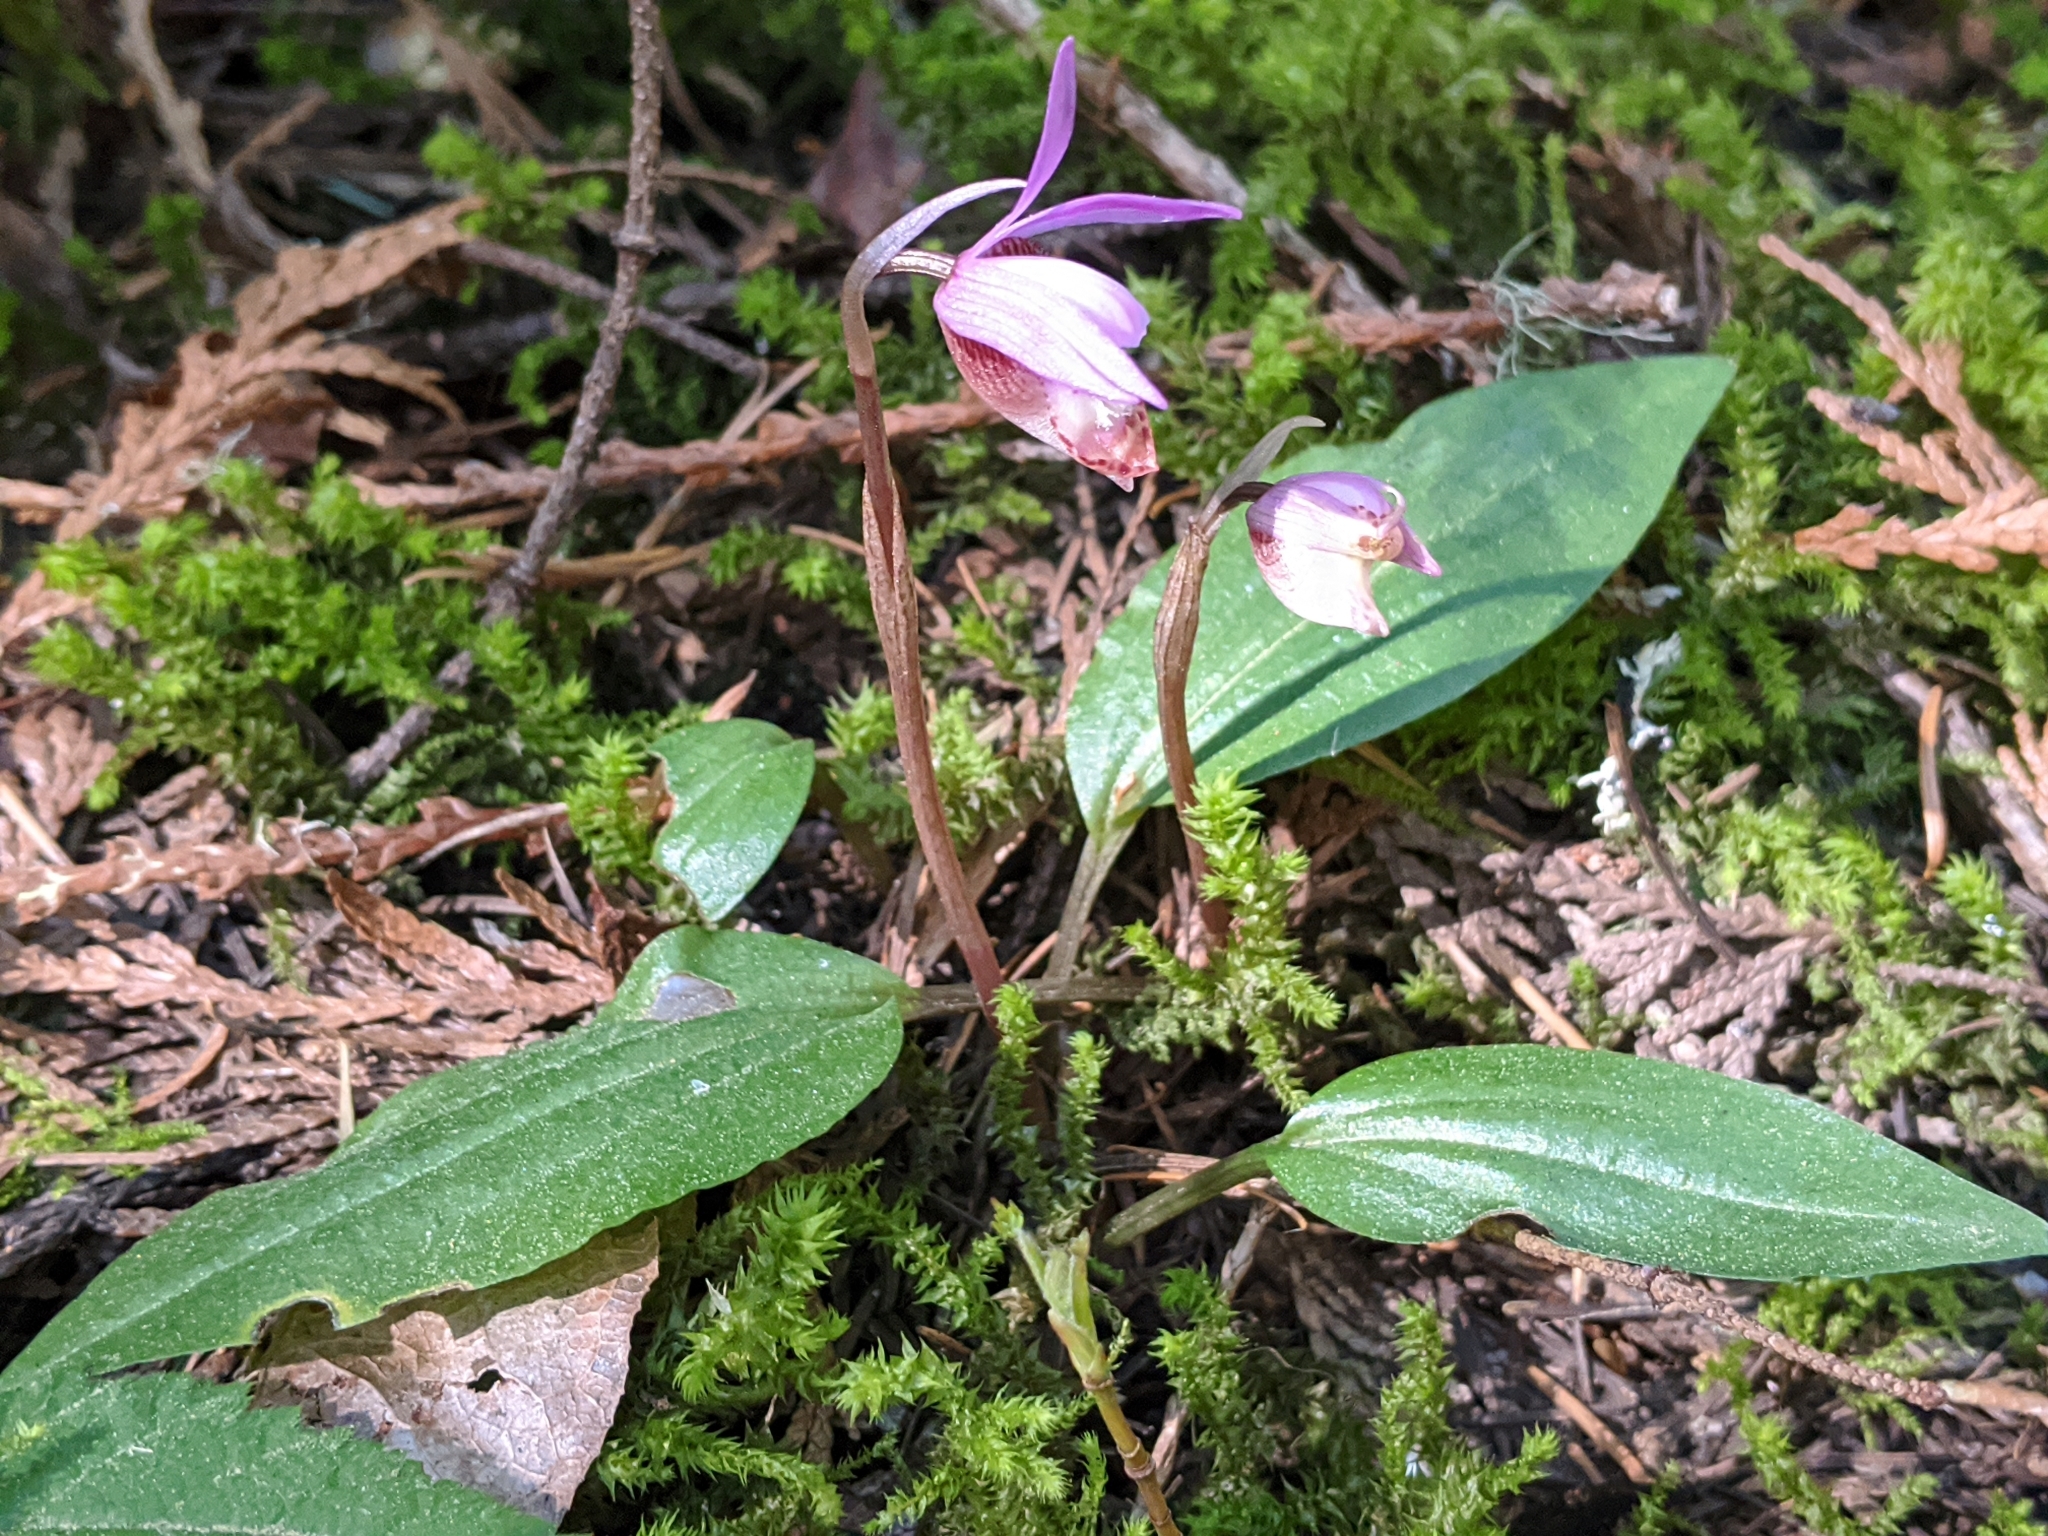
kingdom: Plantae
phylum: Tracheophyta
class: Liliopsida
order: Asparagales
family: Orchidaceae
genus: Calypso
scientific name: Calypso bulbosa
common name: Calypso
